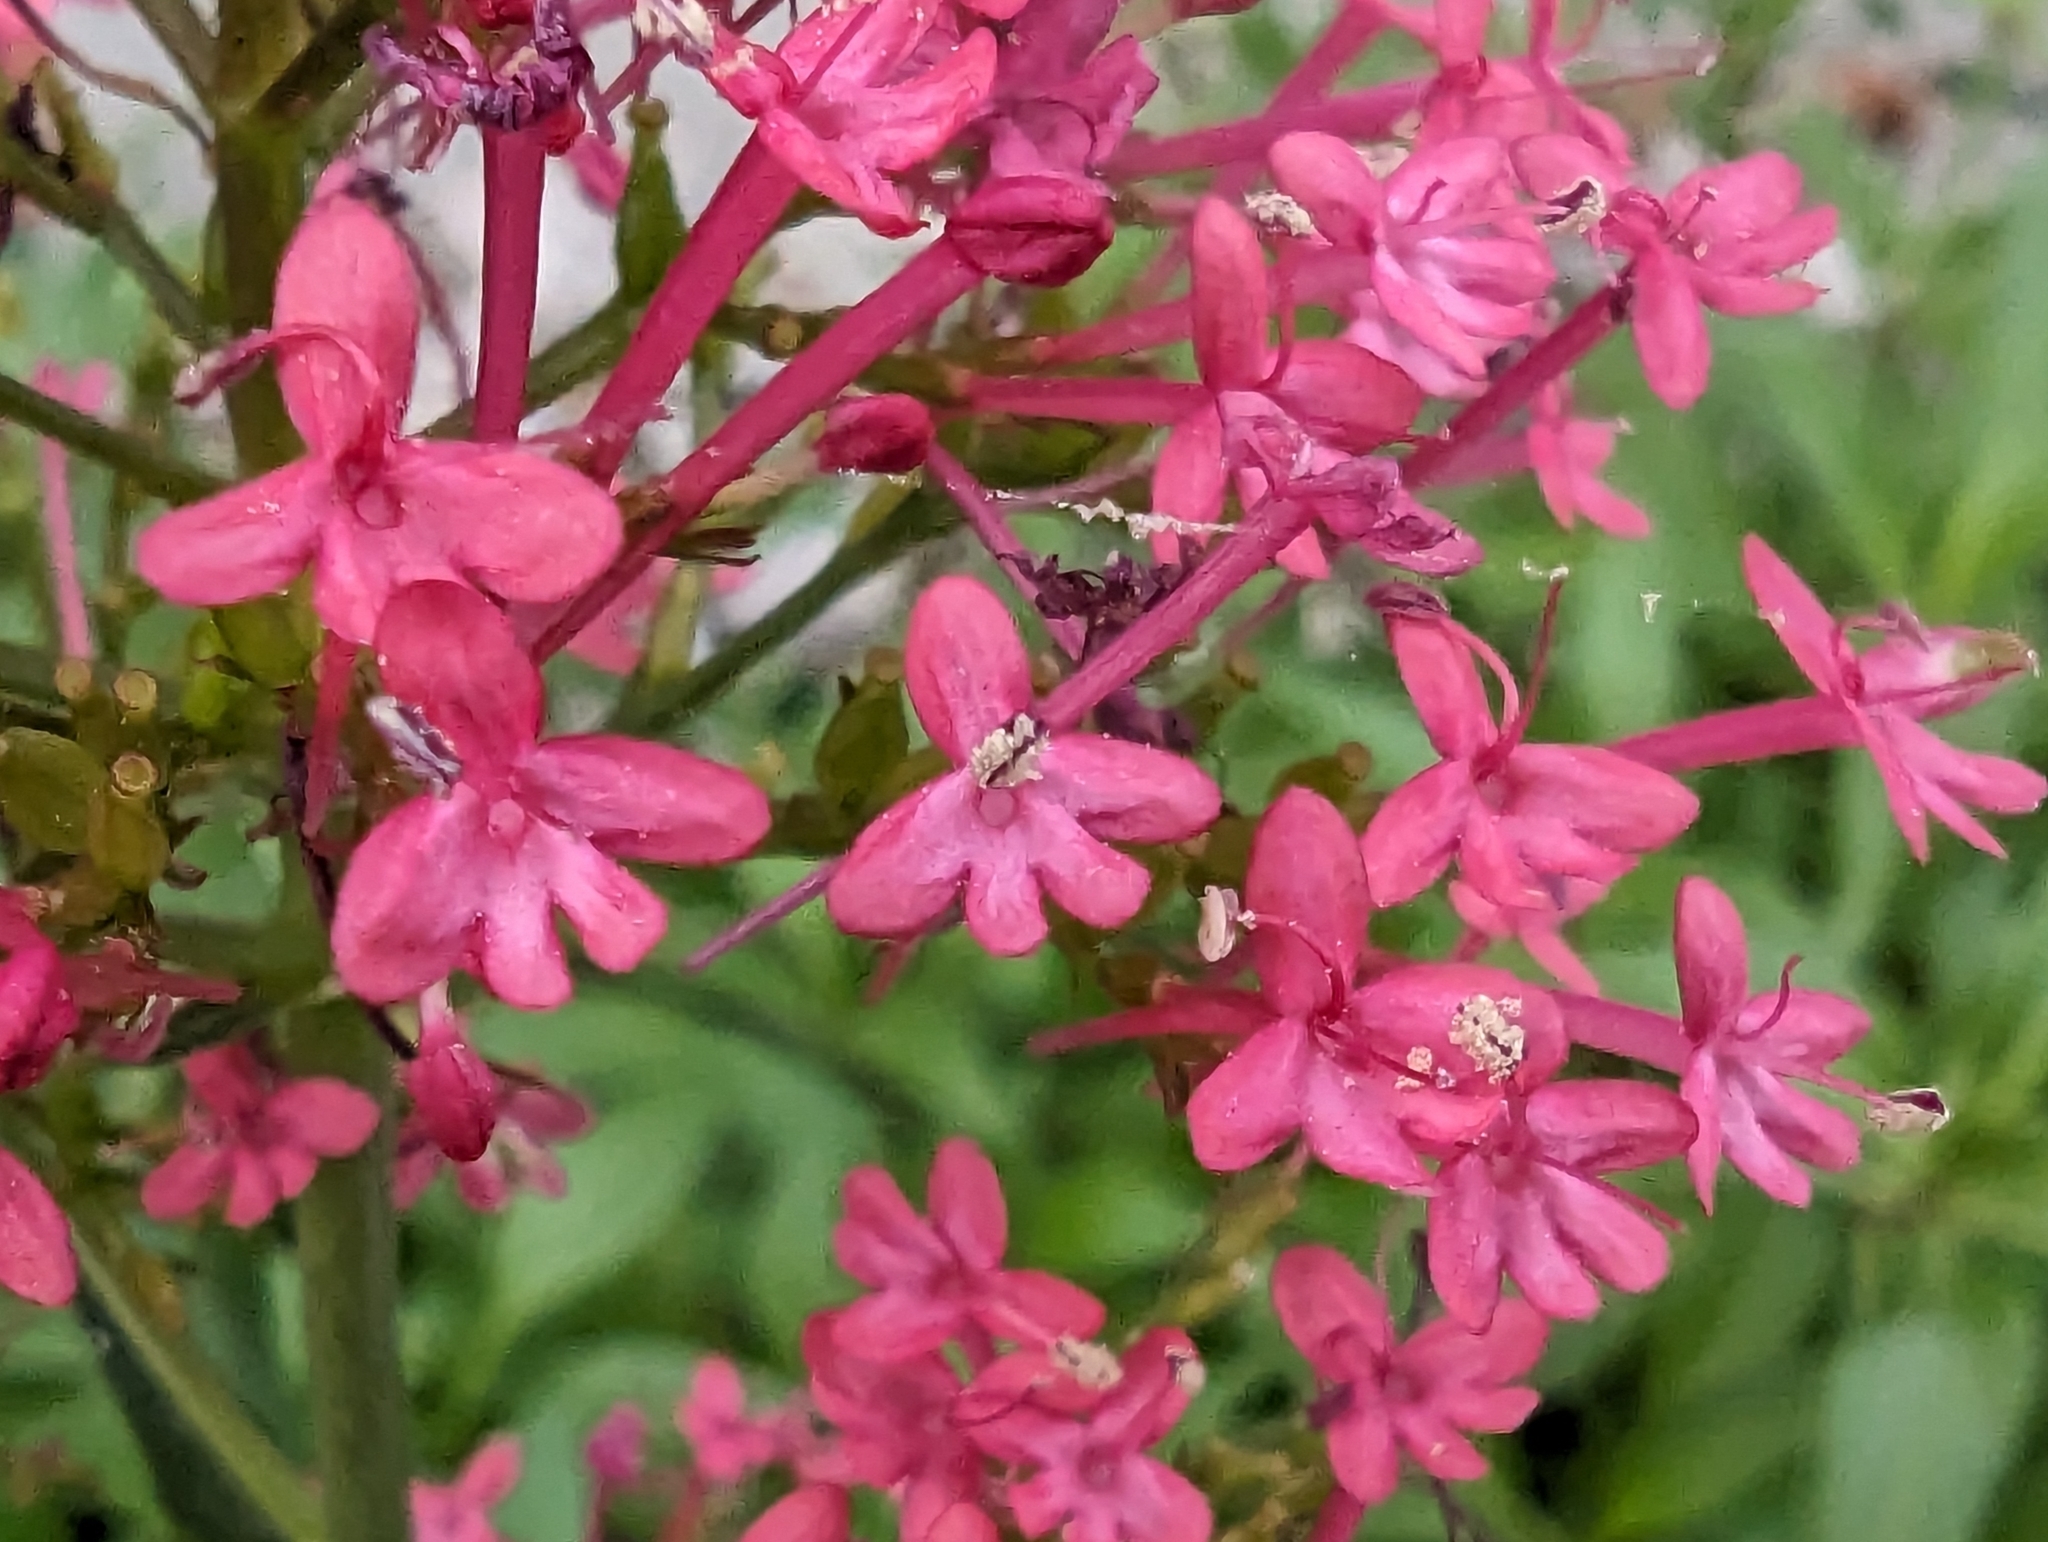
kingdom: Plantae
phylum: Tracheophyta
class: Magnoliopsida
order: Dipsacales
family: Caprifoliaceae
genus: Centranthus
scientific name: Centranthus ruber
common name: Red valerian
